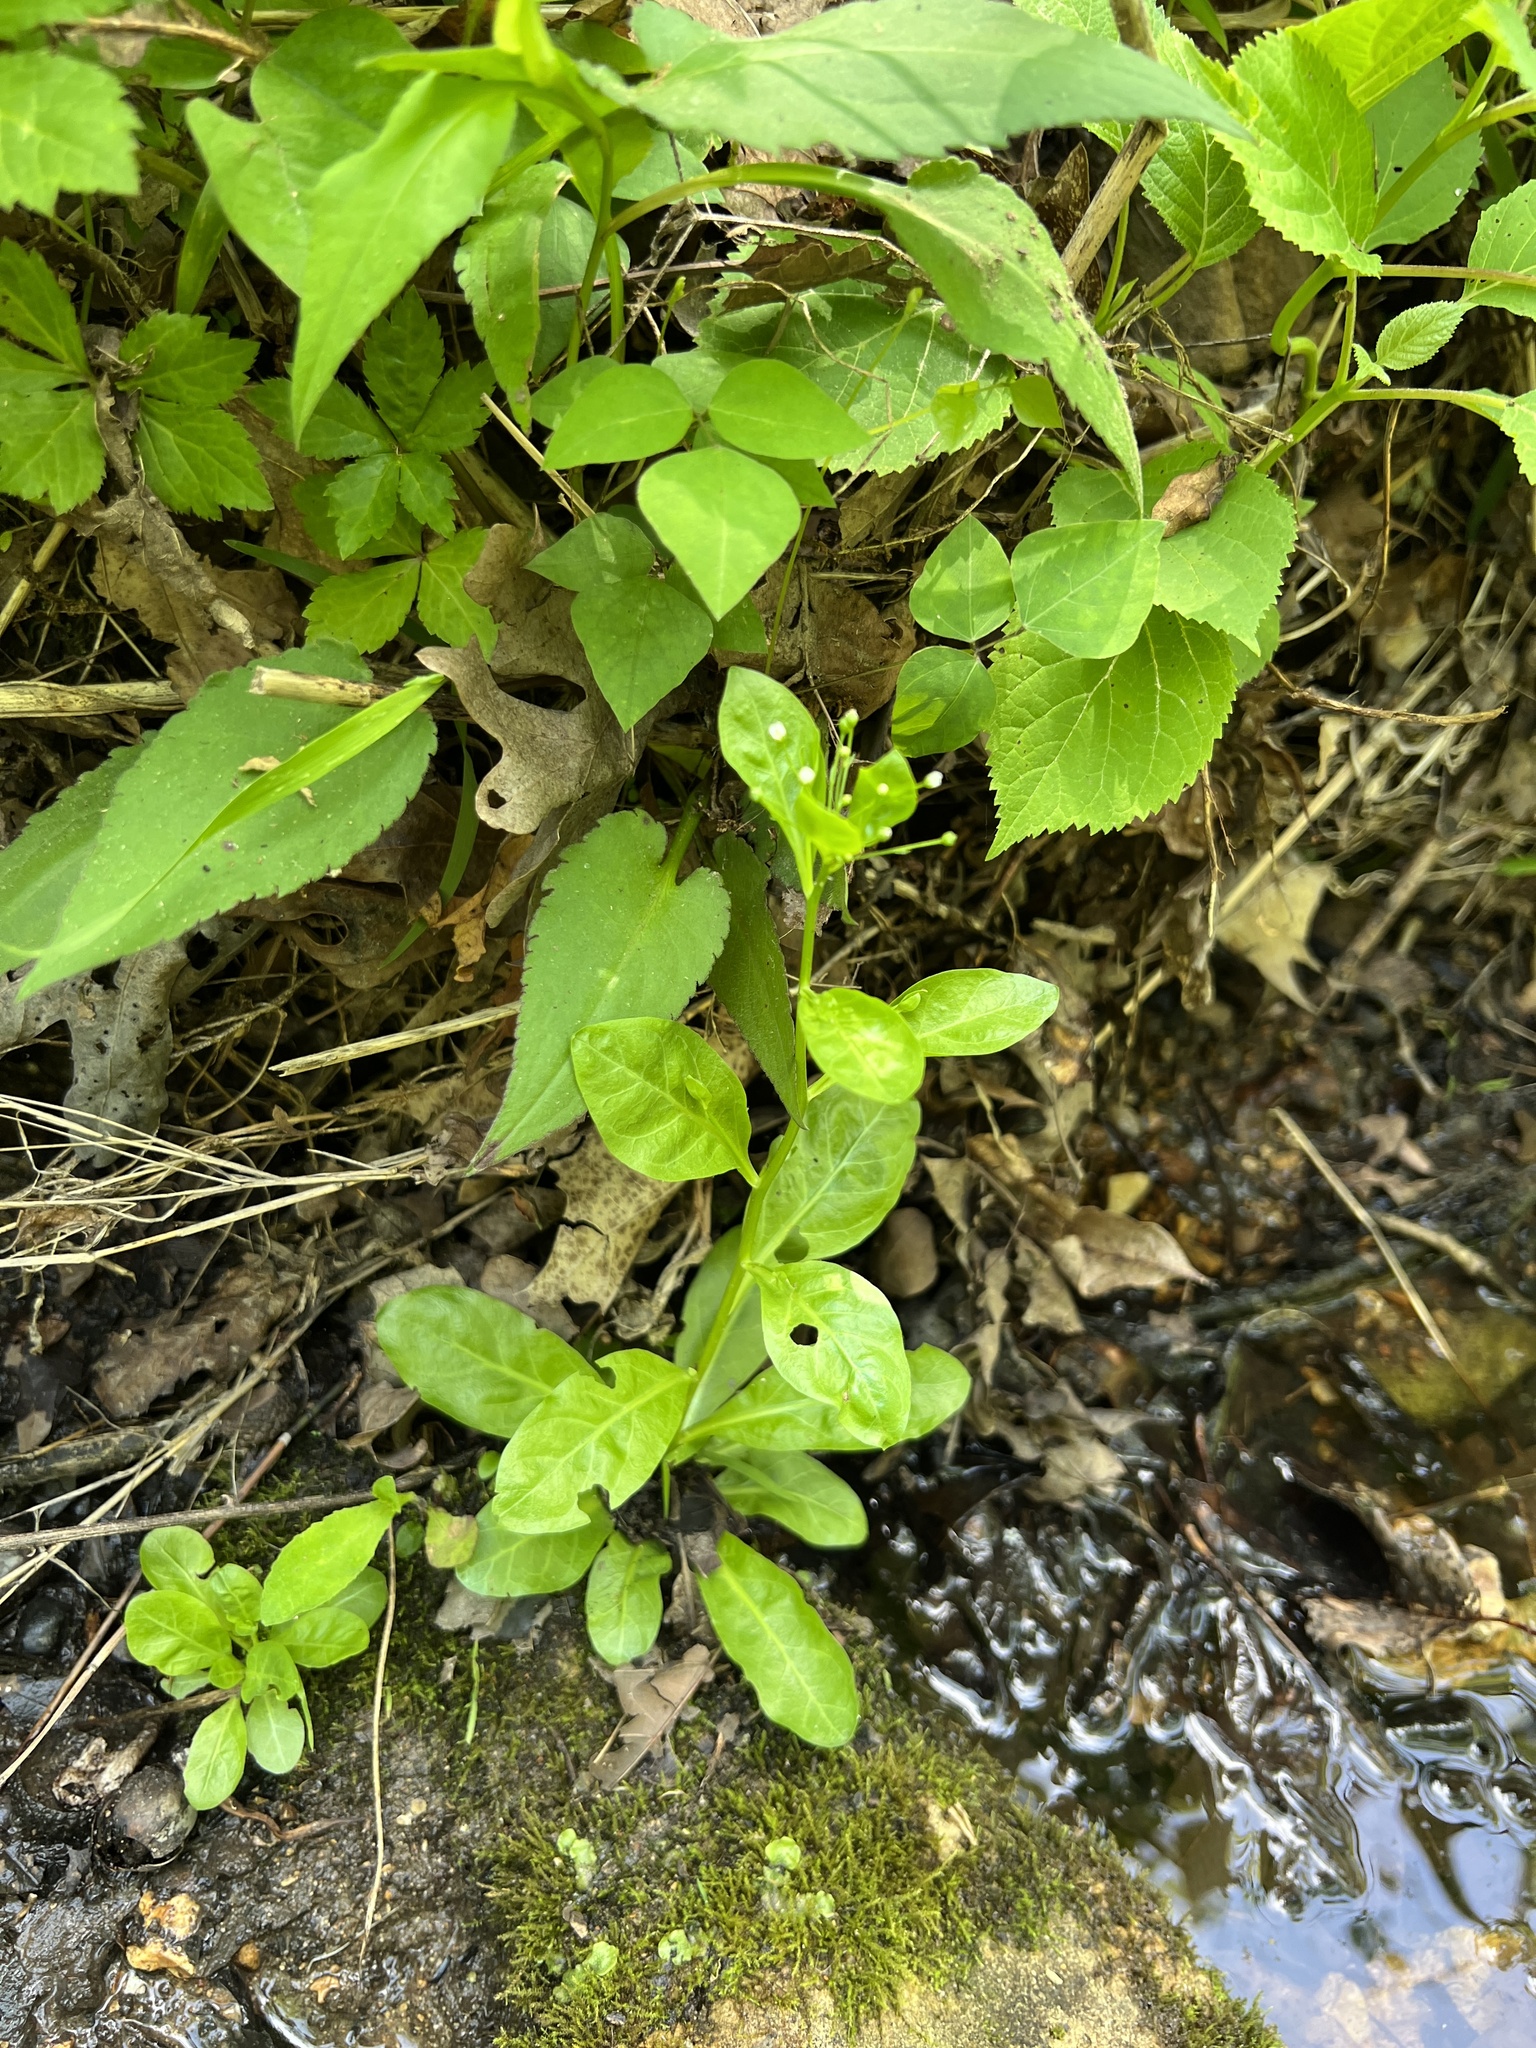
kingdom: Plantae
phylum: Tracheophyta
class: Magnoliopsida
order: Ericales
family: Primulaceae
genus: Samolus
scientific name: Samolus parviflorus
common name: False water pimpernel
